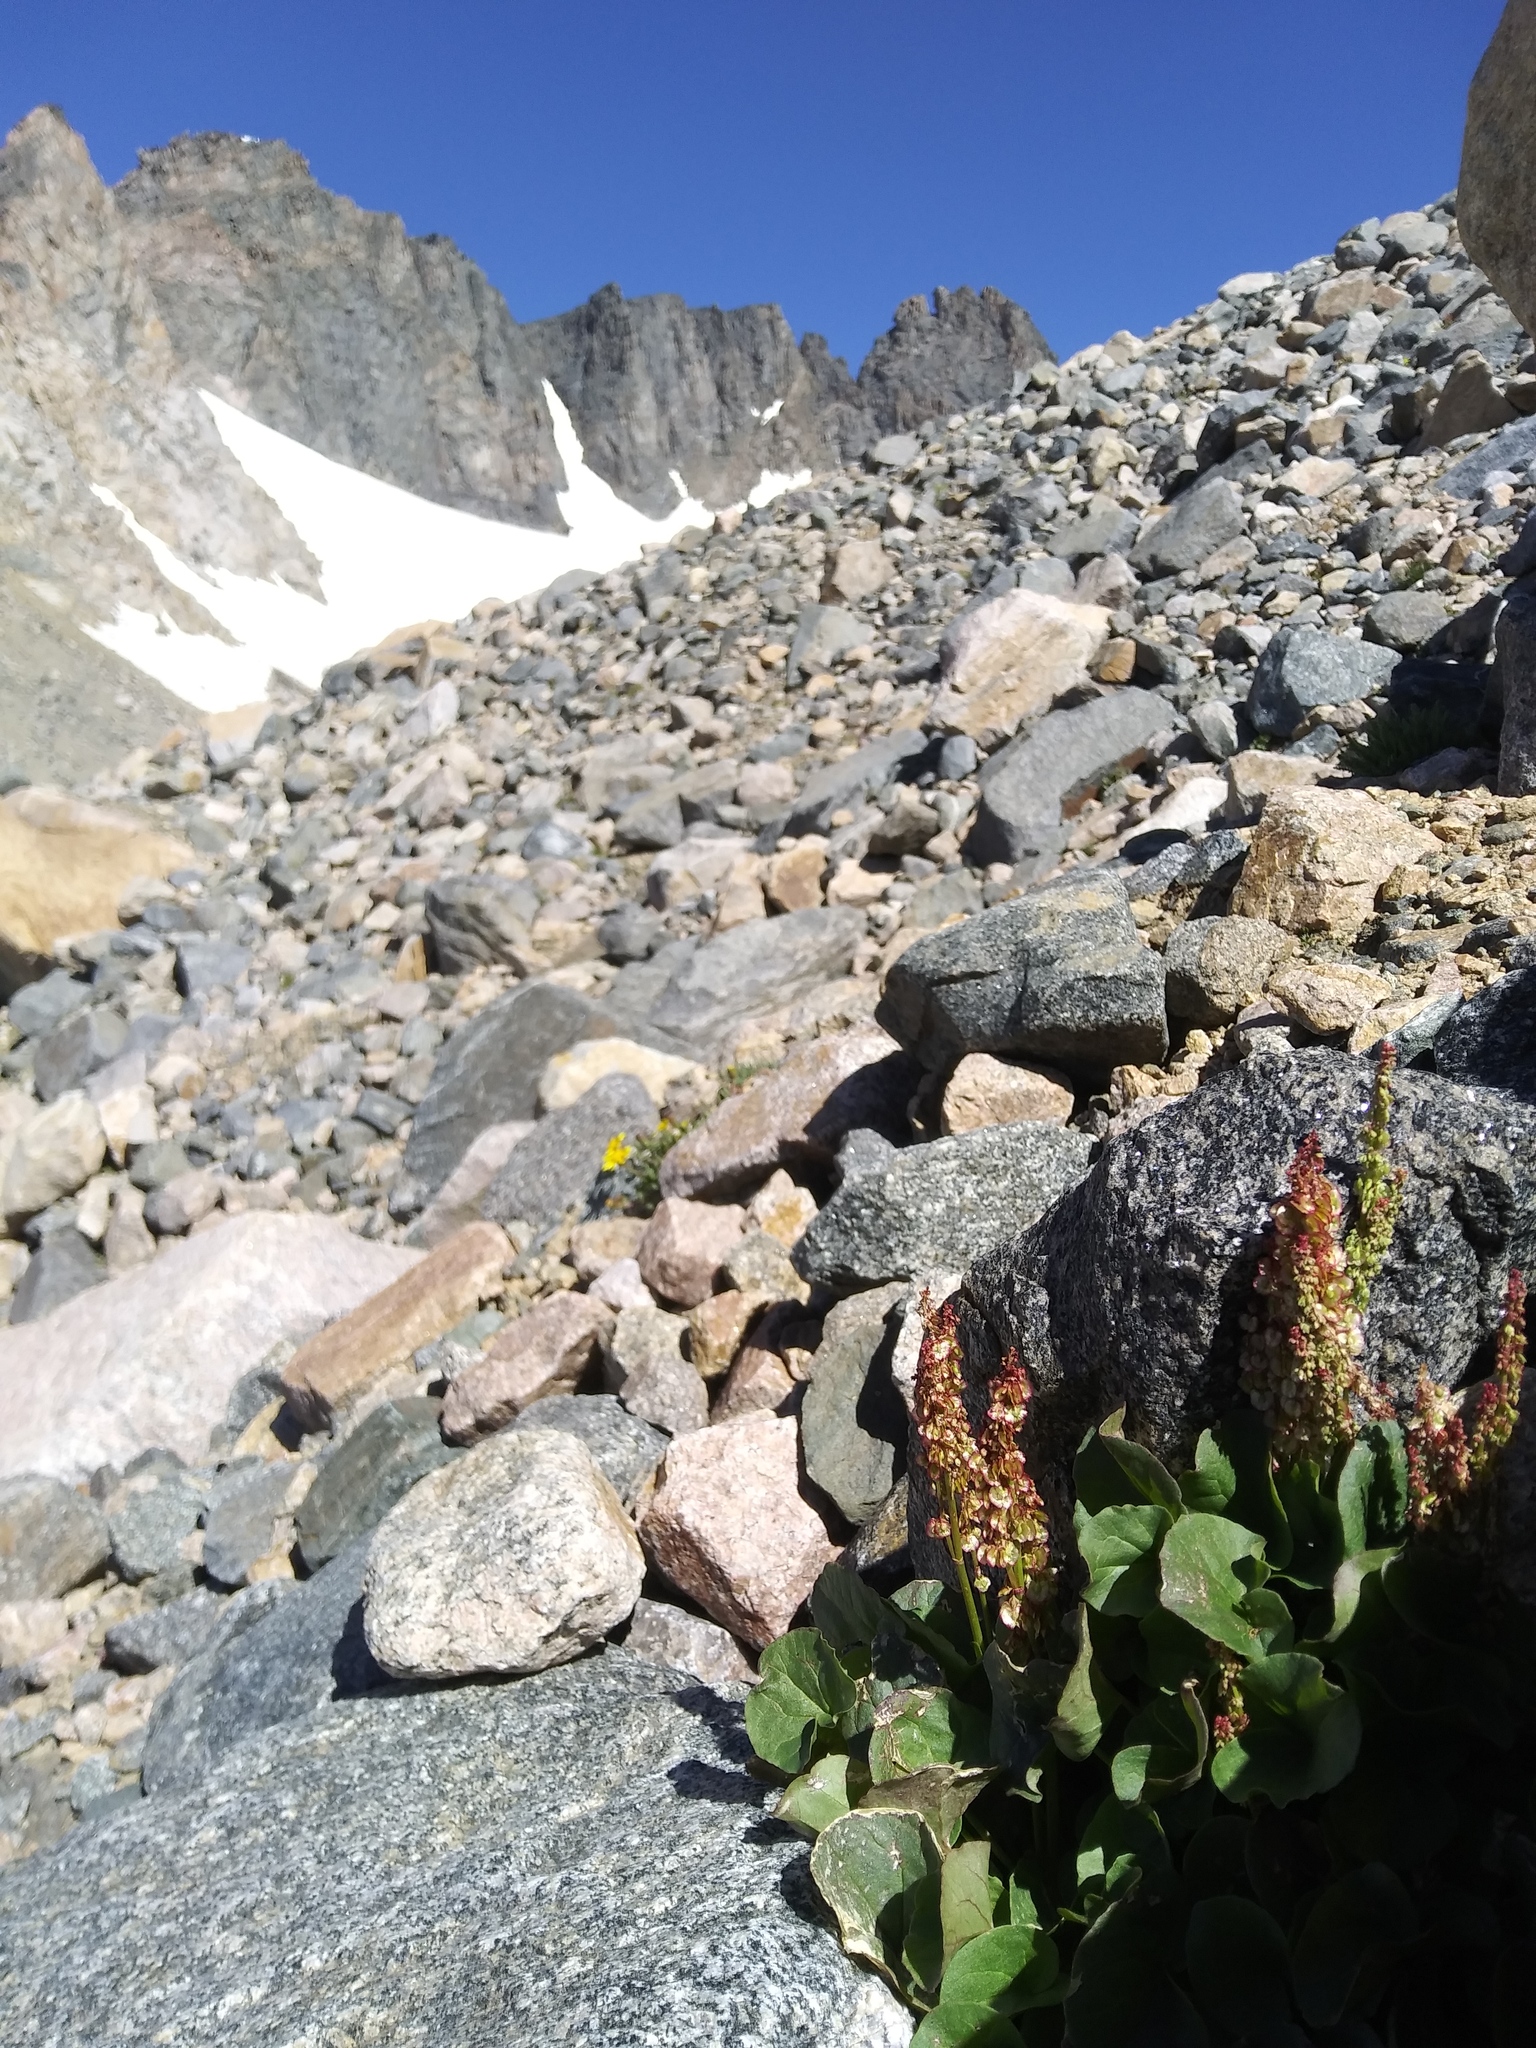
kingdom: Plantae
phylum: Tracheophyta
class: Magnoliopsida
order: Caryophyllales
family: Polygonaceae
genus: Oxyria
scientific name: Oxyria digyna
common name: Alpine mountain-sorrel
